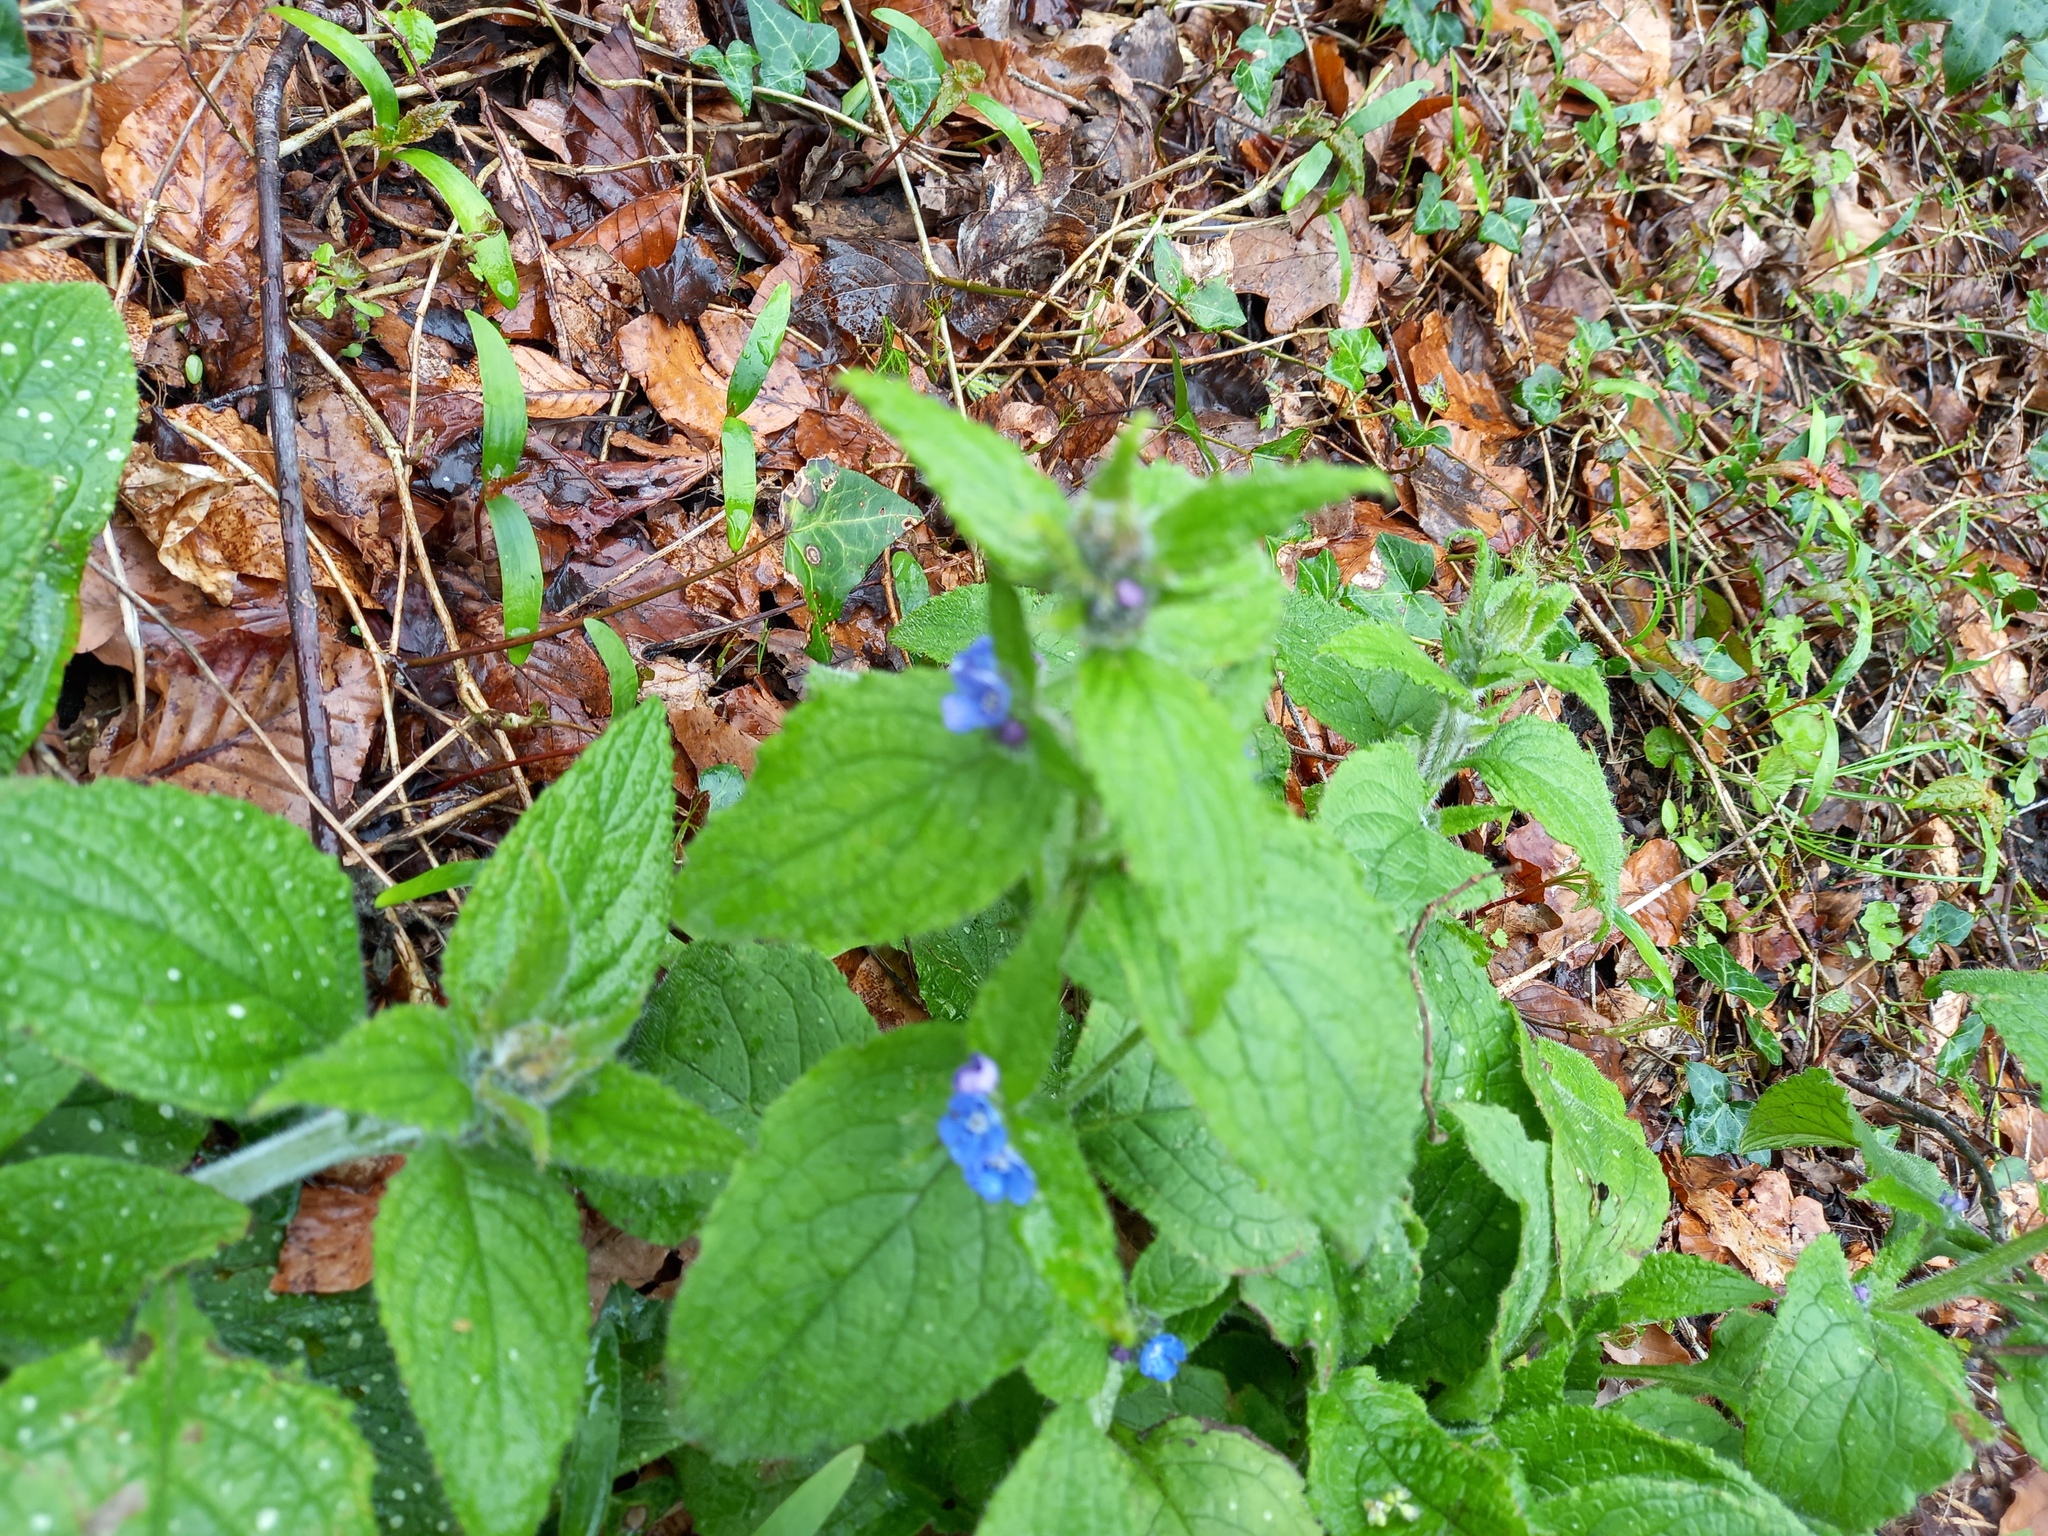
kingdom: Plantae
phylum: Tracheophyta
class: Magnoliopsida
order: Boraginales
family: Boraginaceae
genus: Pentaglottis
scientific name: Pentaglottis sempervirens
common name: Green alkanet
